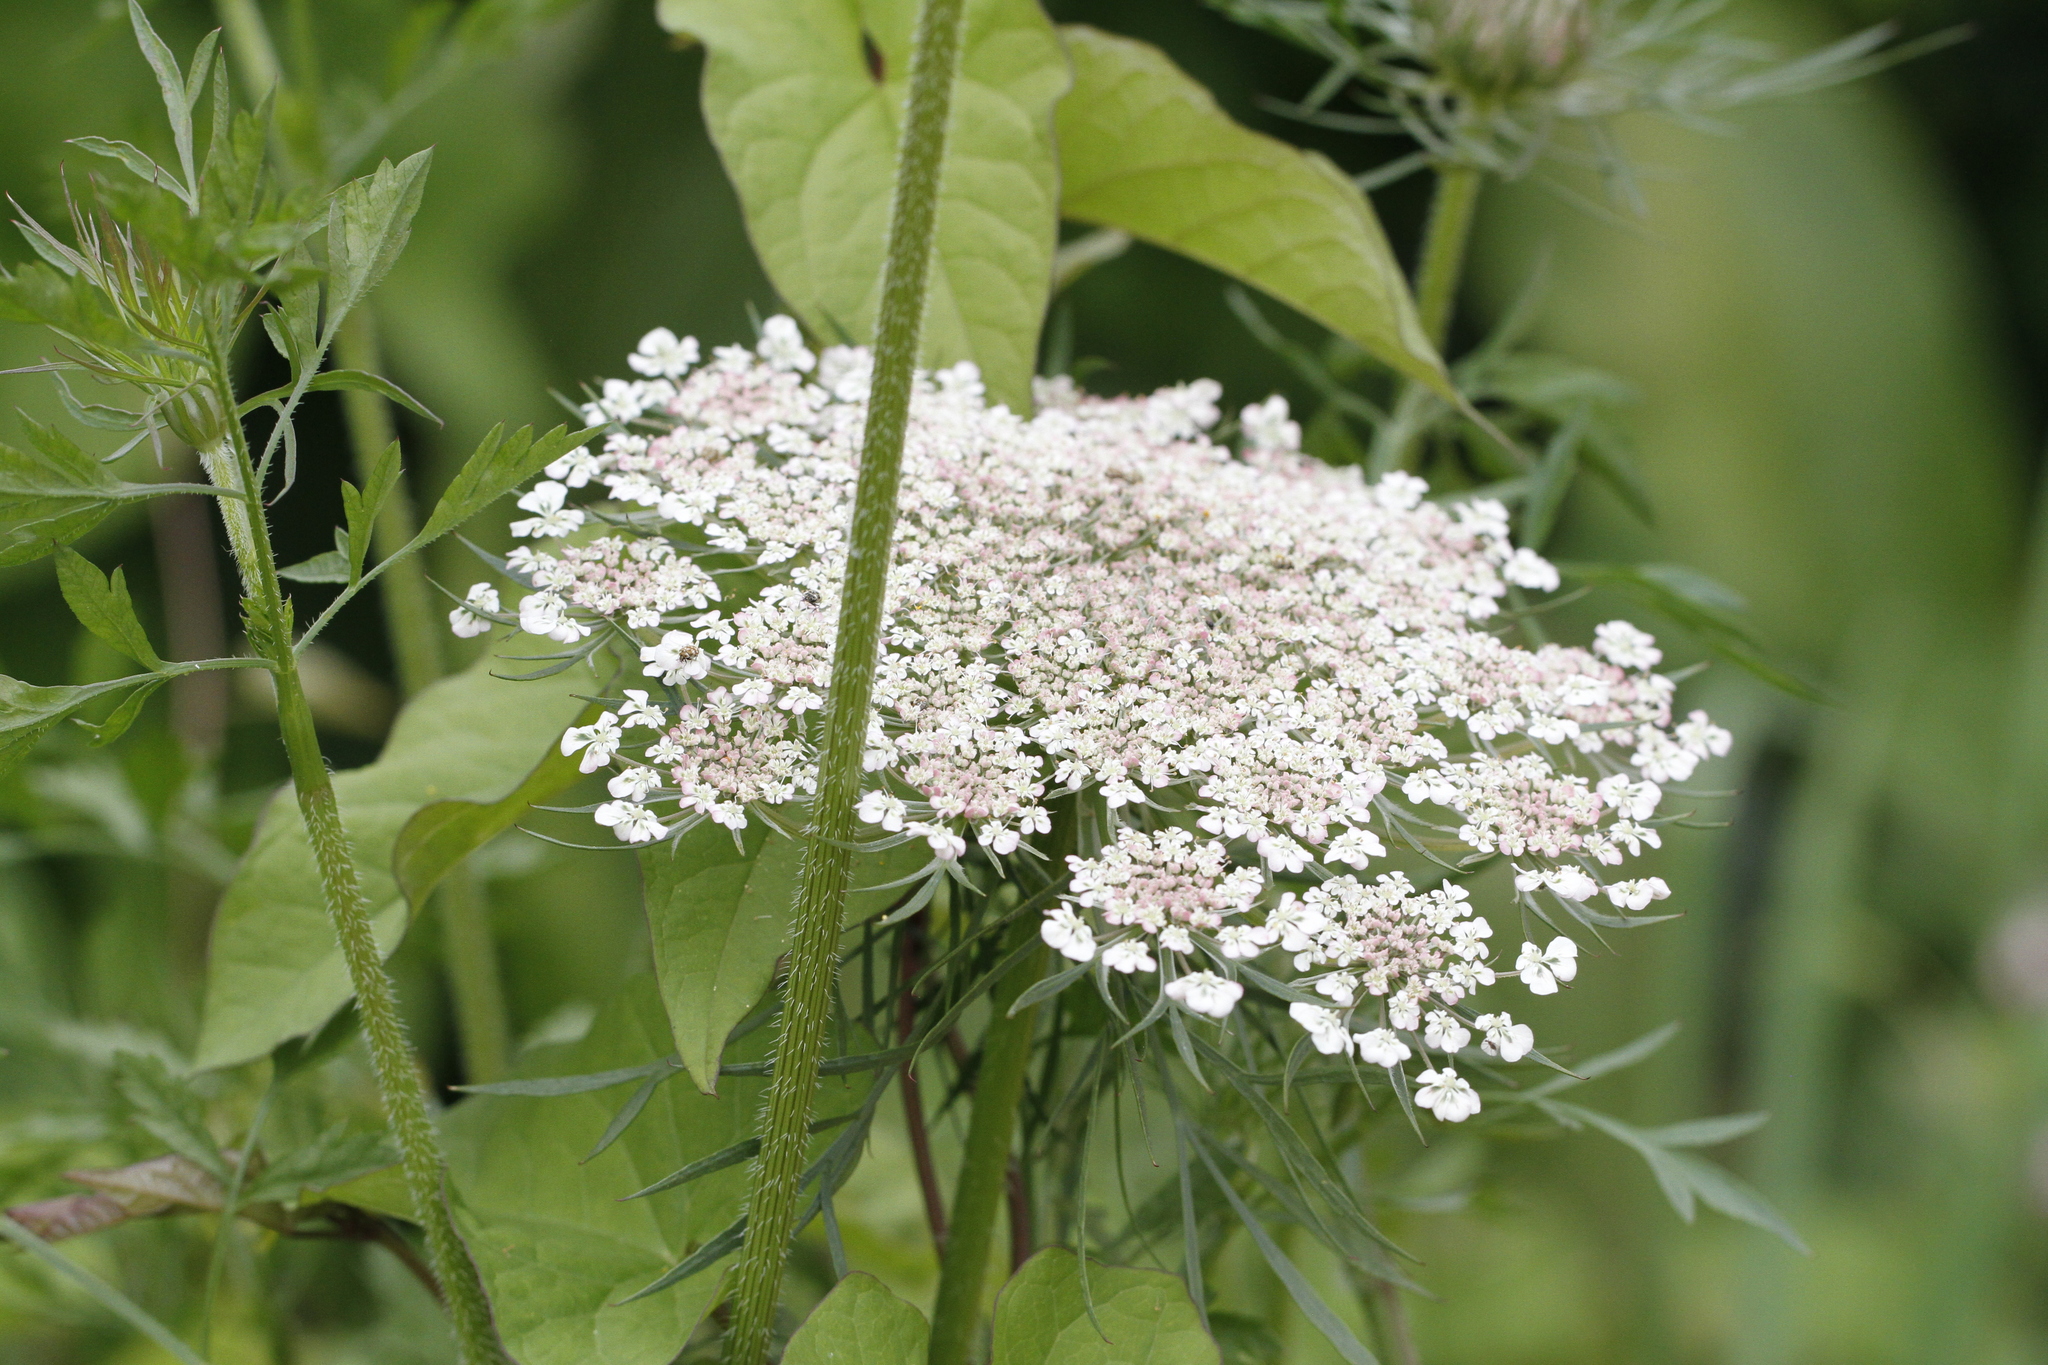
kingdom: Plantae
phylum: Tracheophyta
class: Magnoliopsida
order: Apiales
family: Apiaceae
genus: Daucus
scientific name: Daucus carota
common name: Wild carrot
